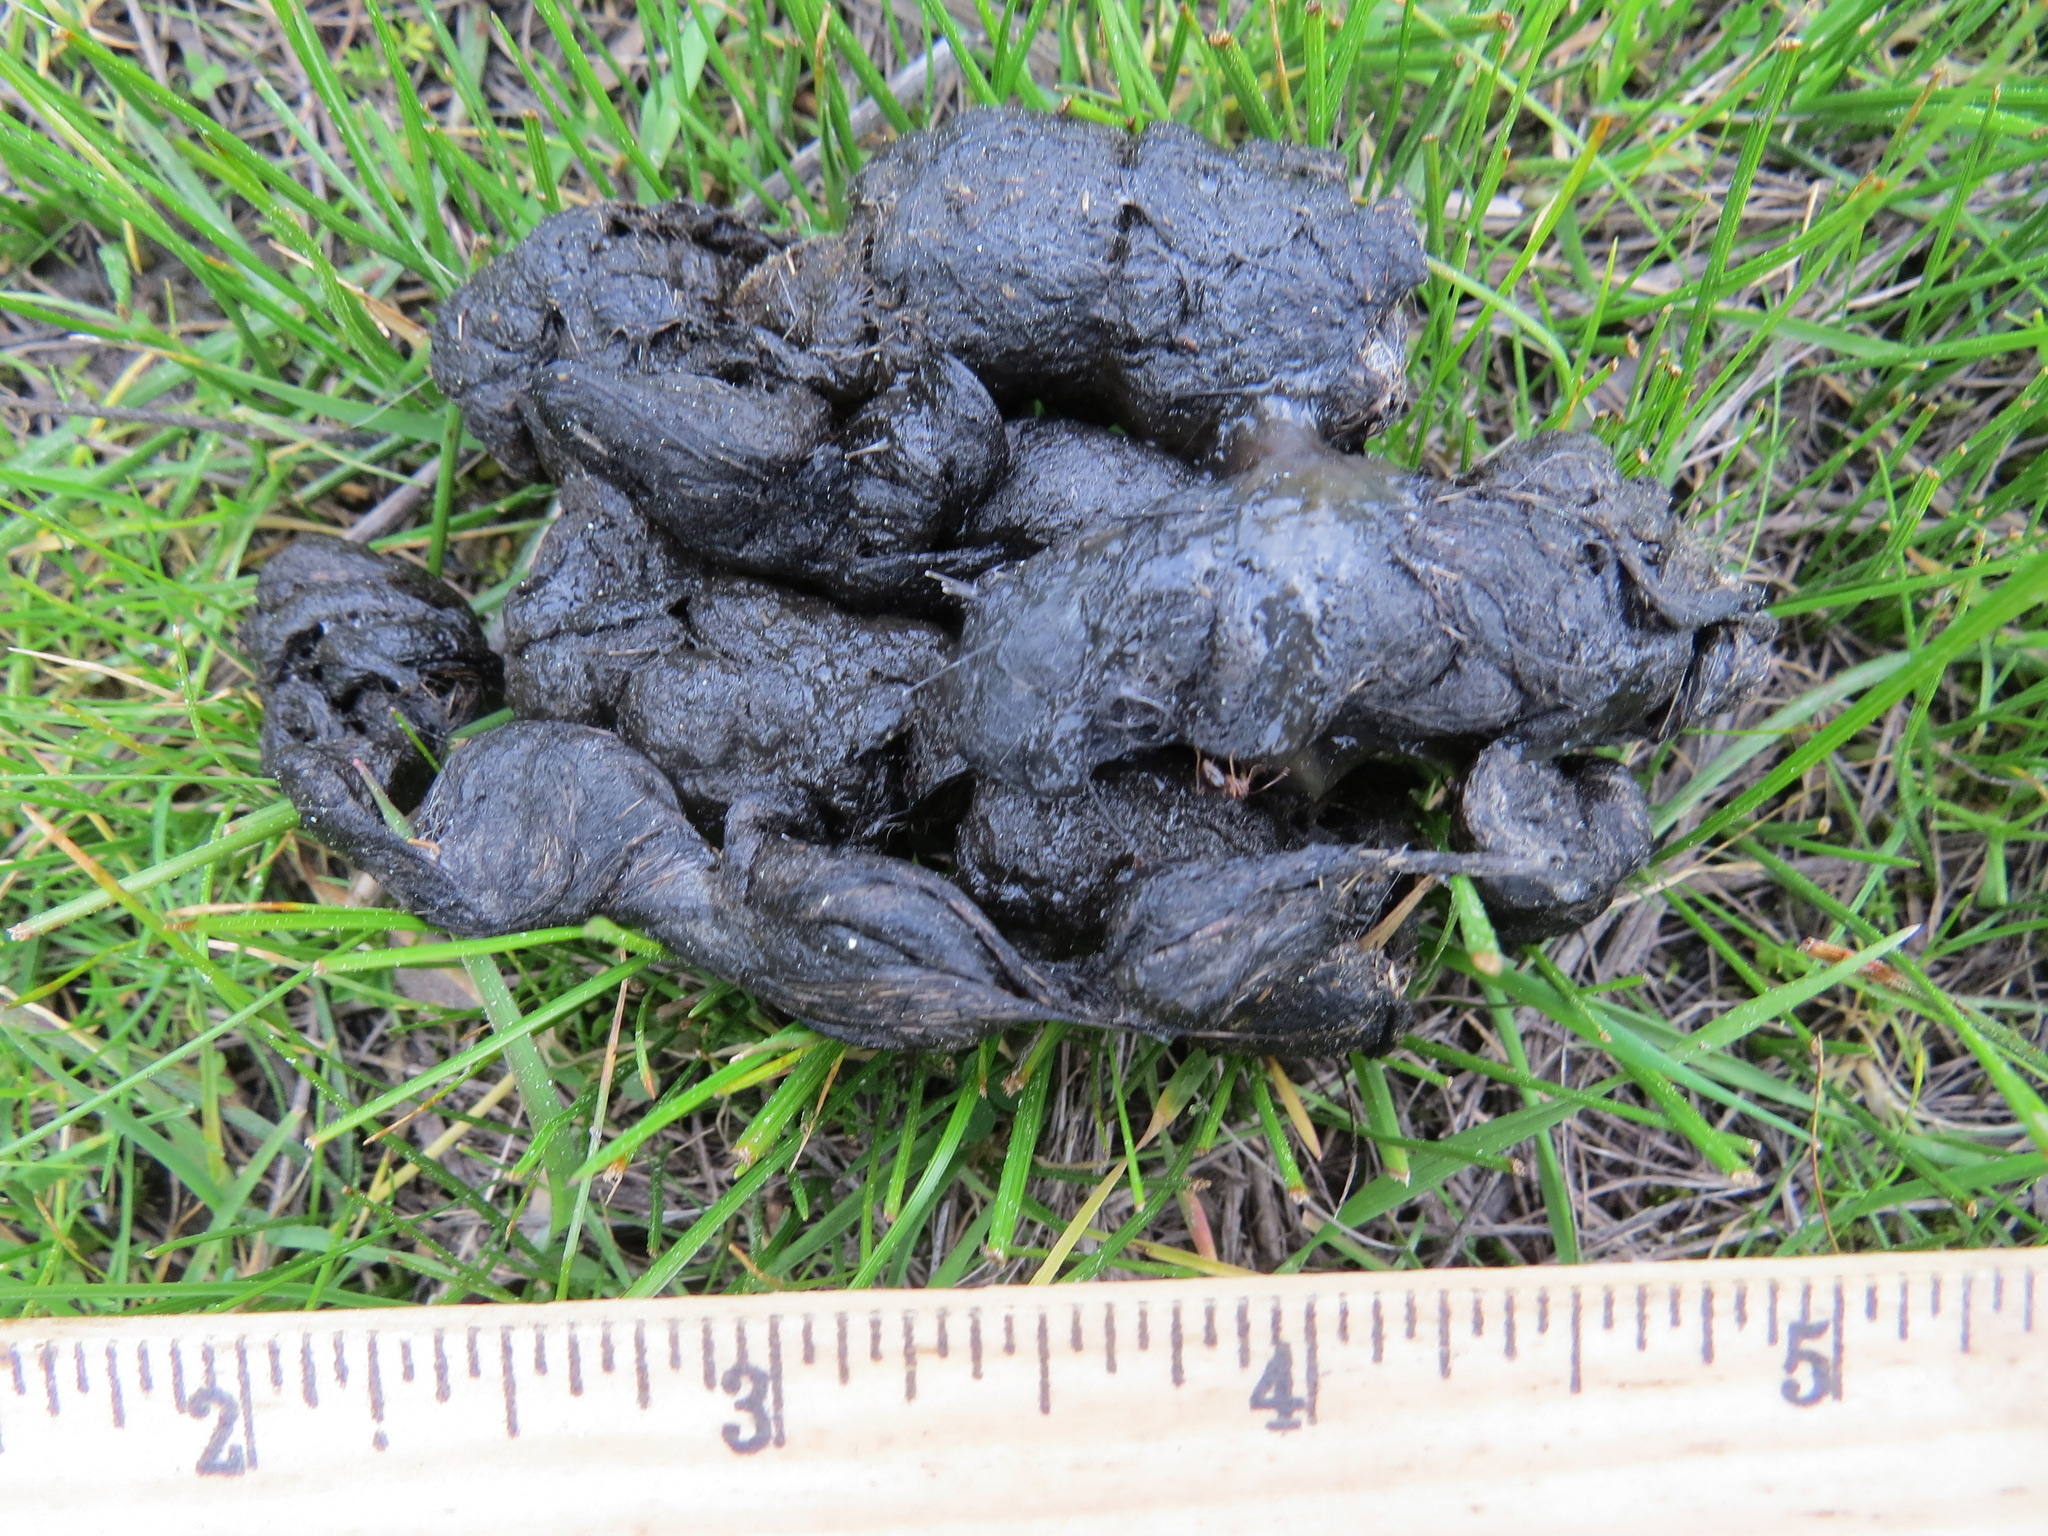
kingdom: Animalia
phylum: Chordata
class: Mammalia
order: Carnivora
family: Canidae
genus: Urocyon
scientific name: Urocyon cinereoargenteus
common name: Gray fox
